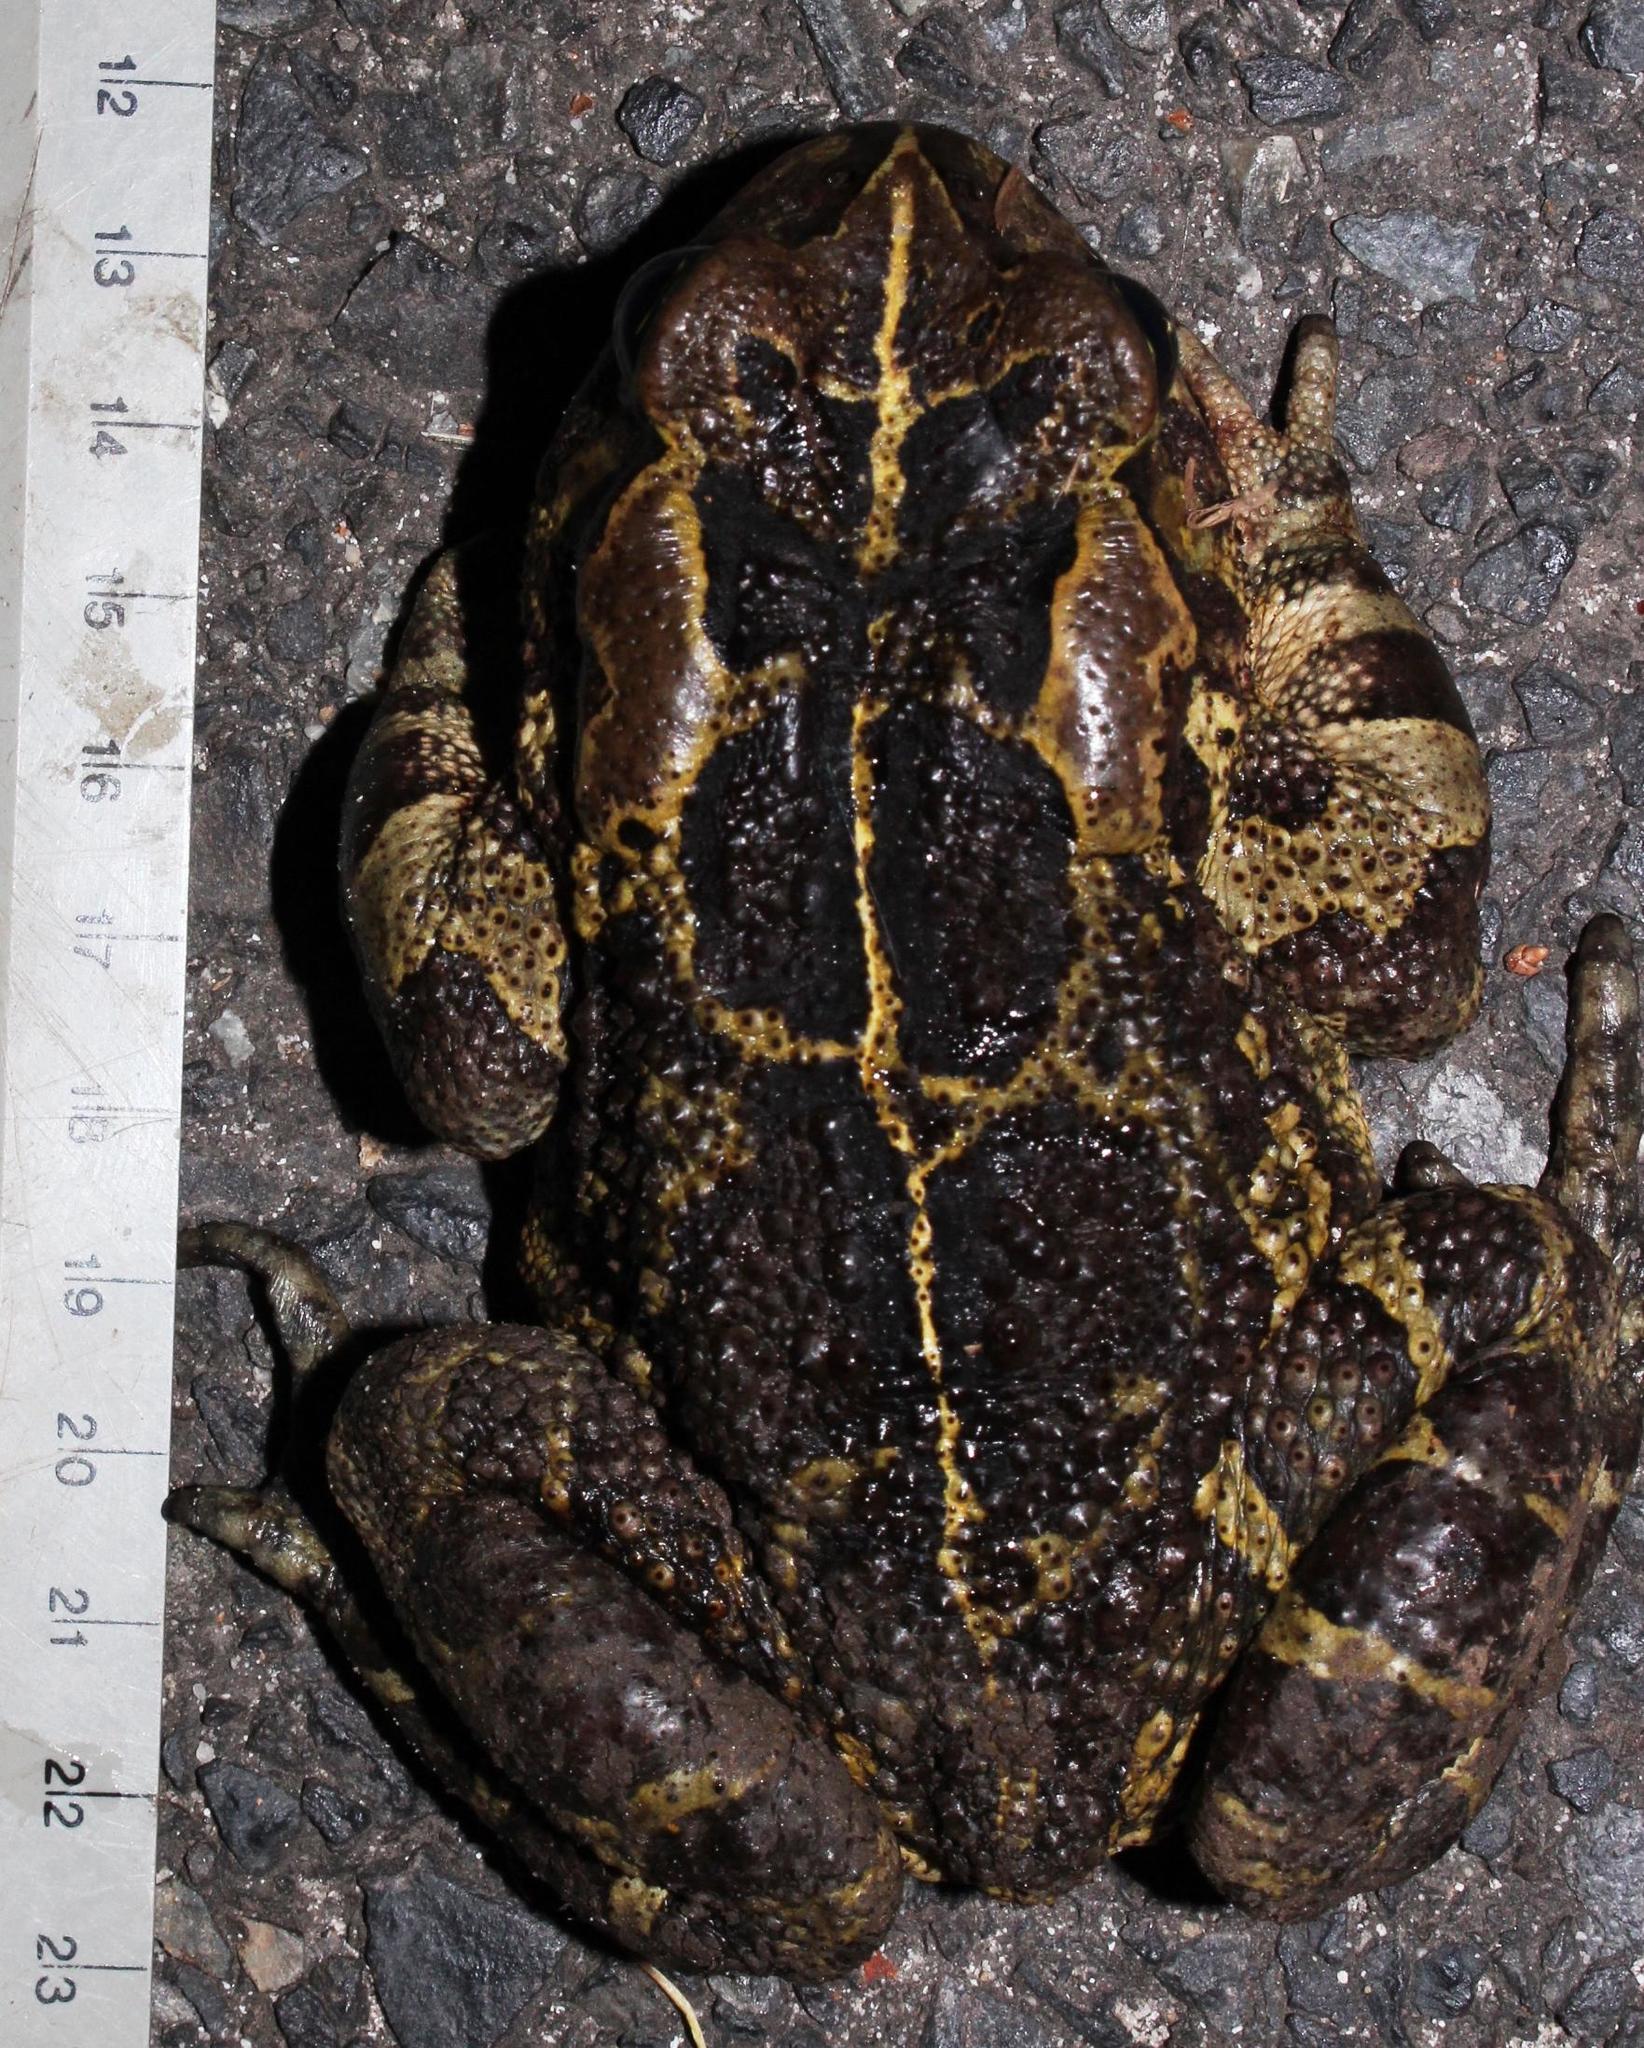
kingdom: Animalia
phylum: Chordata
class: Amphibia
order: Anura
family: Bufonidae
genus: Sclerophrys
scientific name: Sclerophrys pantherina
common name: Panther toad
